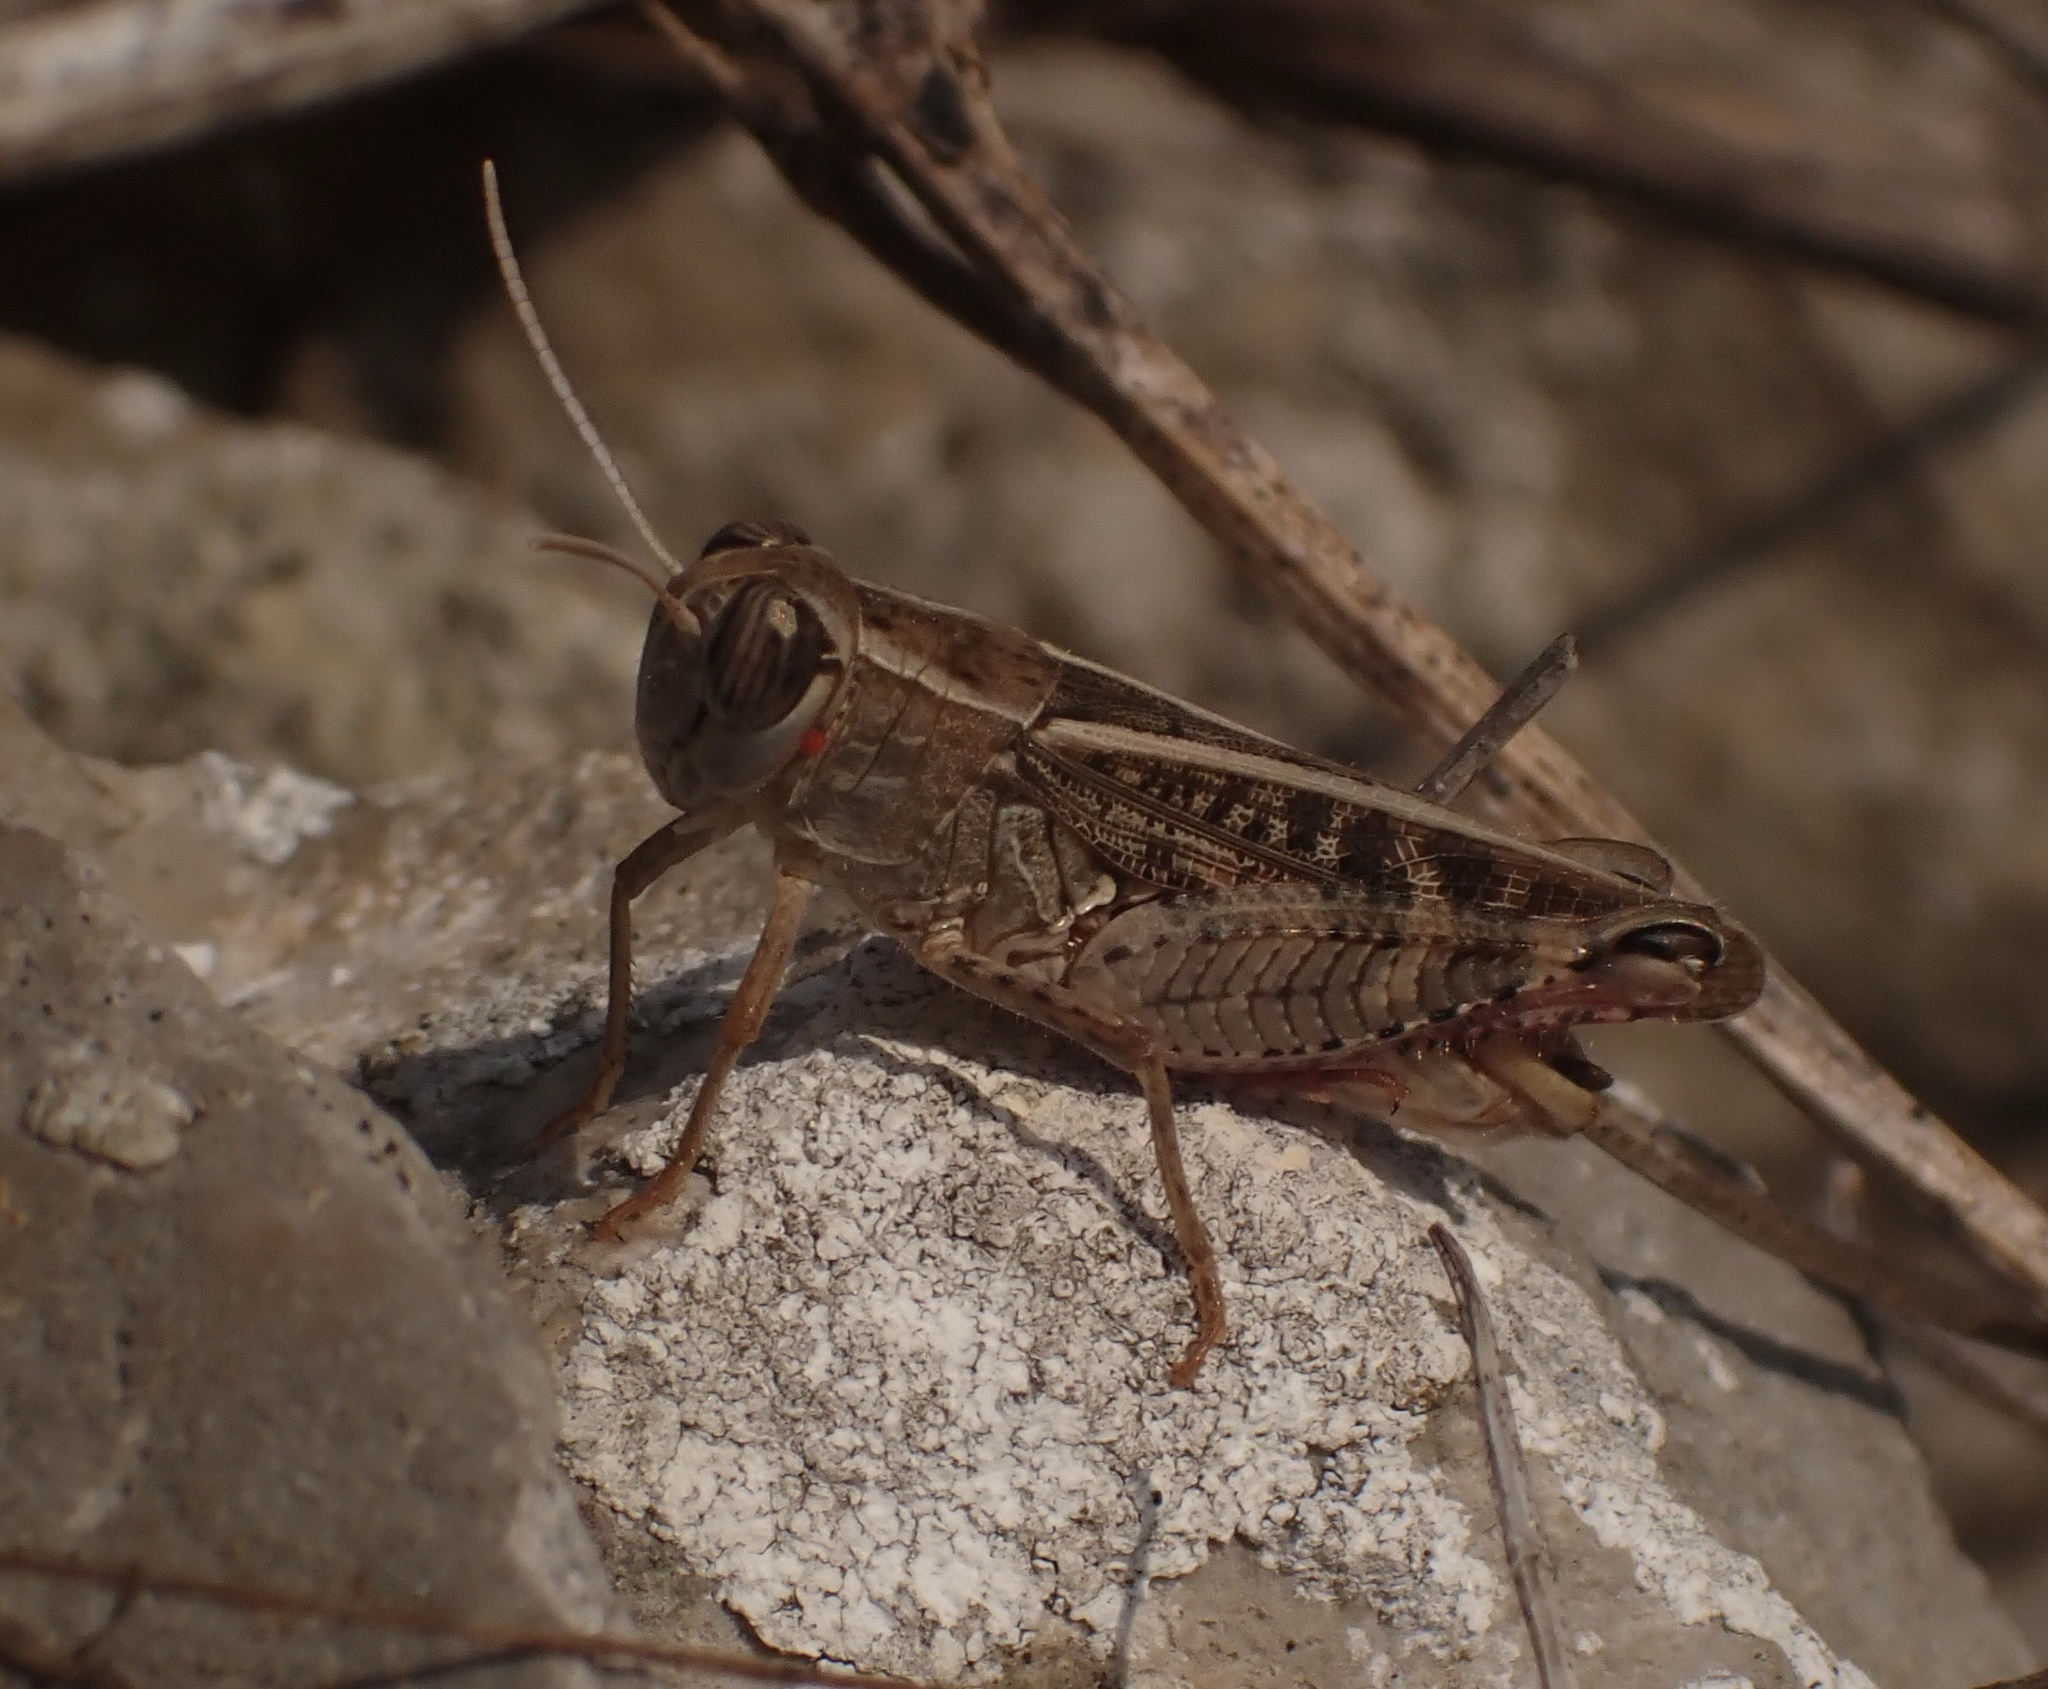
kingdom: Animalia
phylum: Arthropoda
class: Insecta
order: Orthoptera
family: Acrididae
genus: Calliptamus
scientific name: Calliptamus italicus
